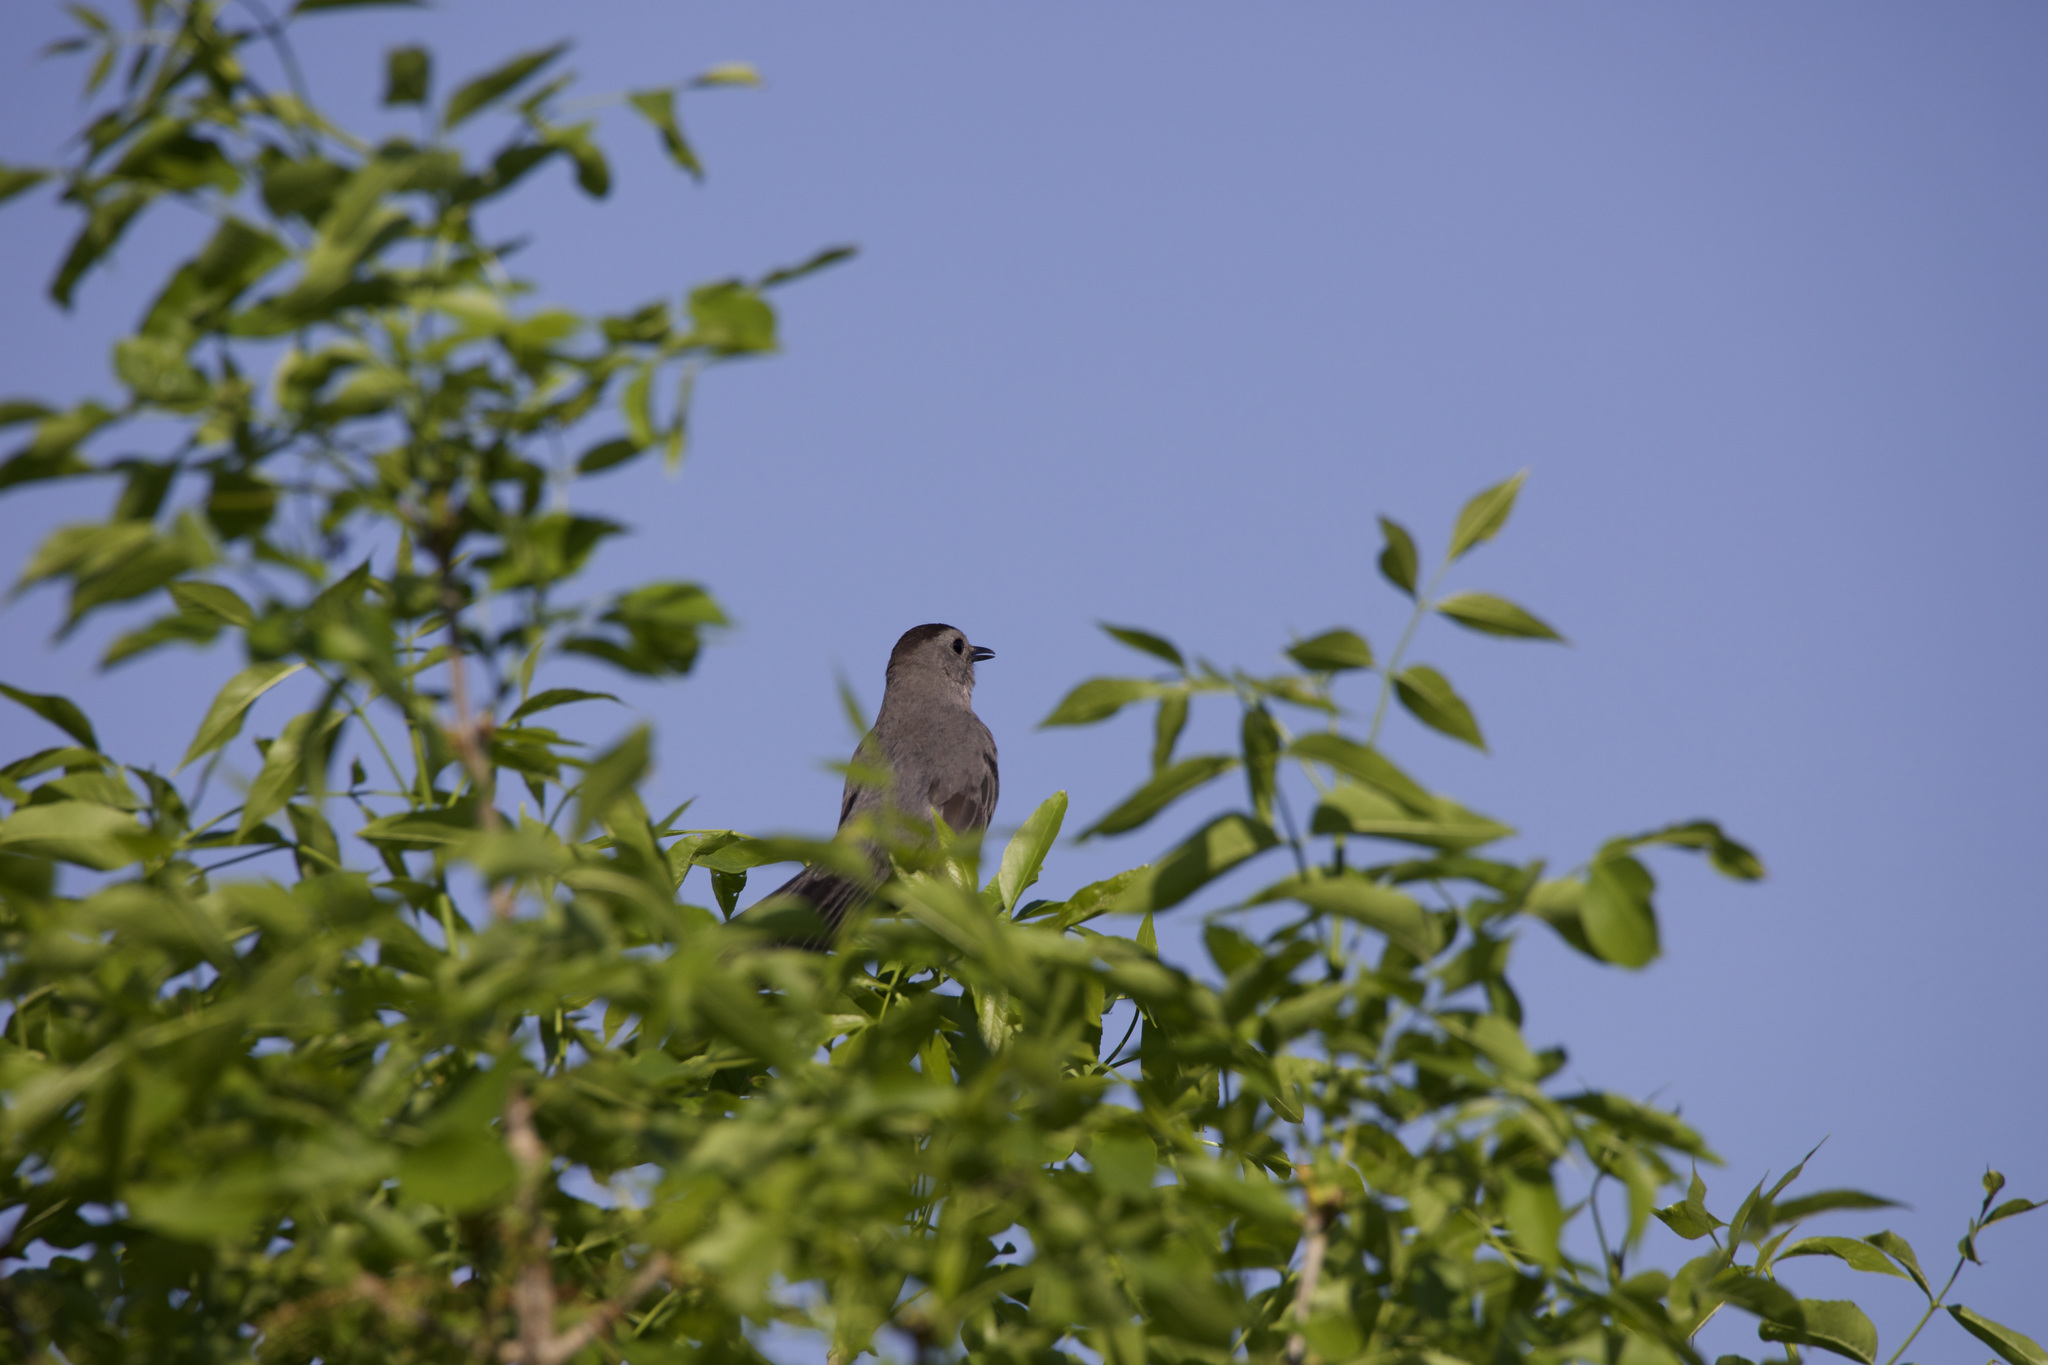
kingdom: Animalia
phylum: Chordata
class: Aves
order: Passeriformes
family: Mimidae
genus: Dumetella
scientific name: Dumetella carolinensis
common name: Gray catbird
